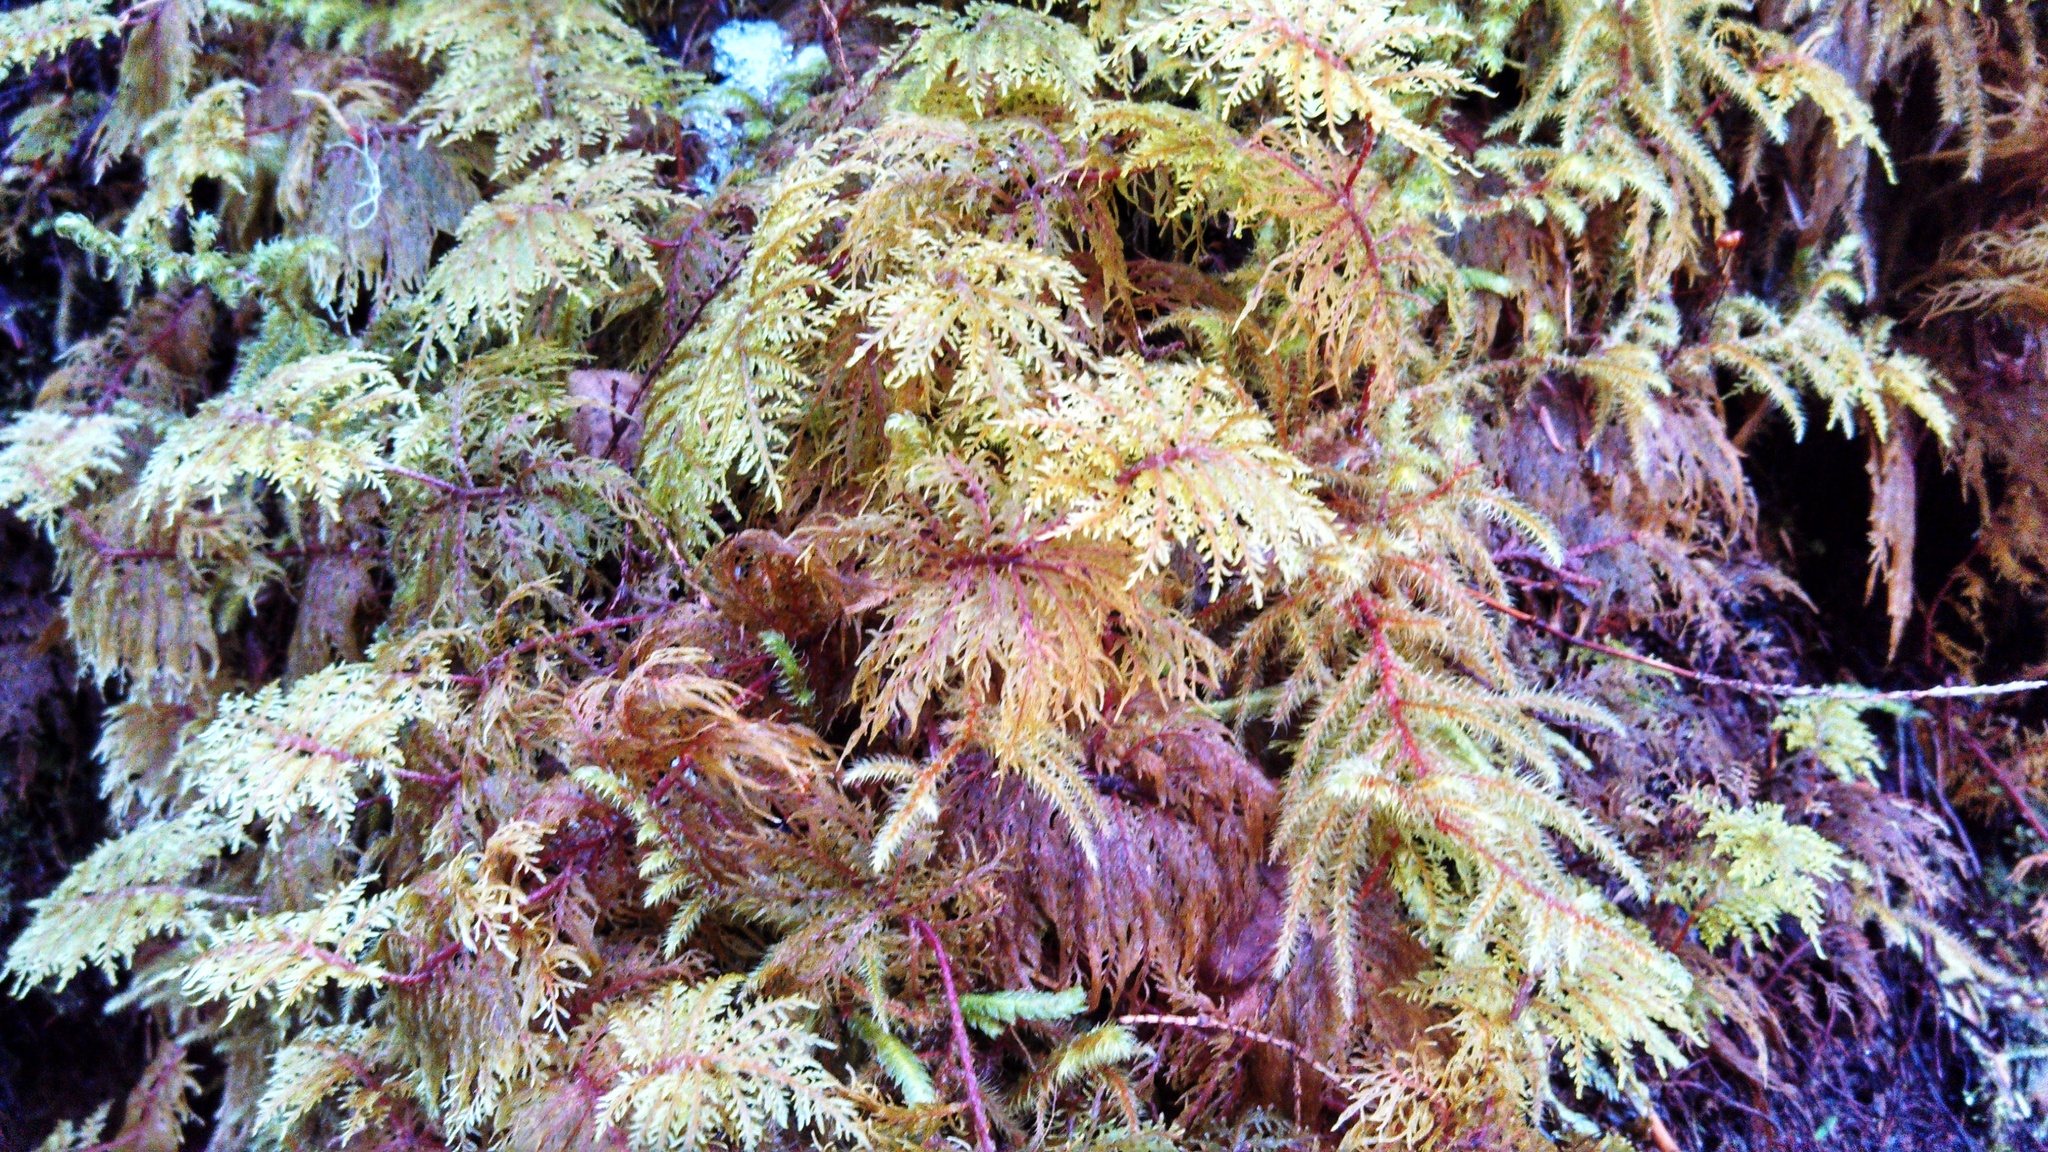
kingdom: Plantae
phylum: Bryophyta
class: Bryopsida
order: Hypnales
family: Hylocomiaceae
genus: Hylocomium
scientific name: Hylocomium splendens
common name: Stairstep moss
